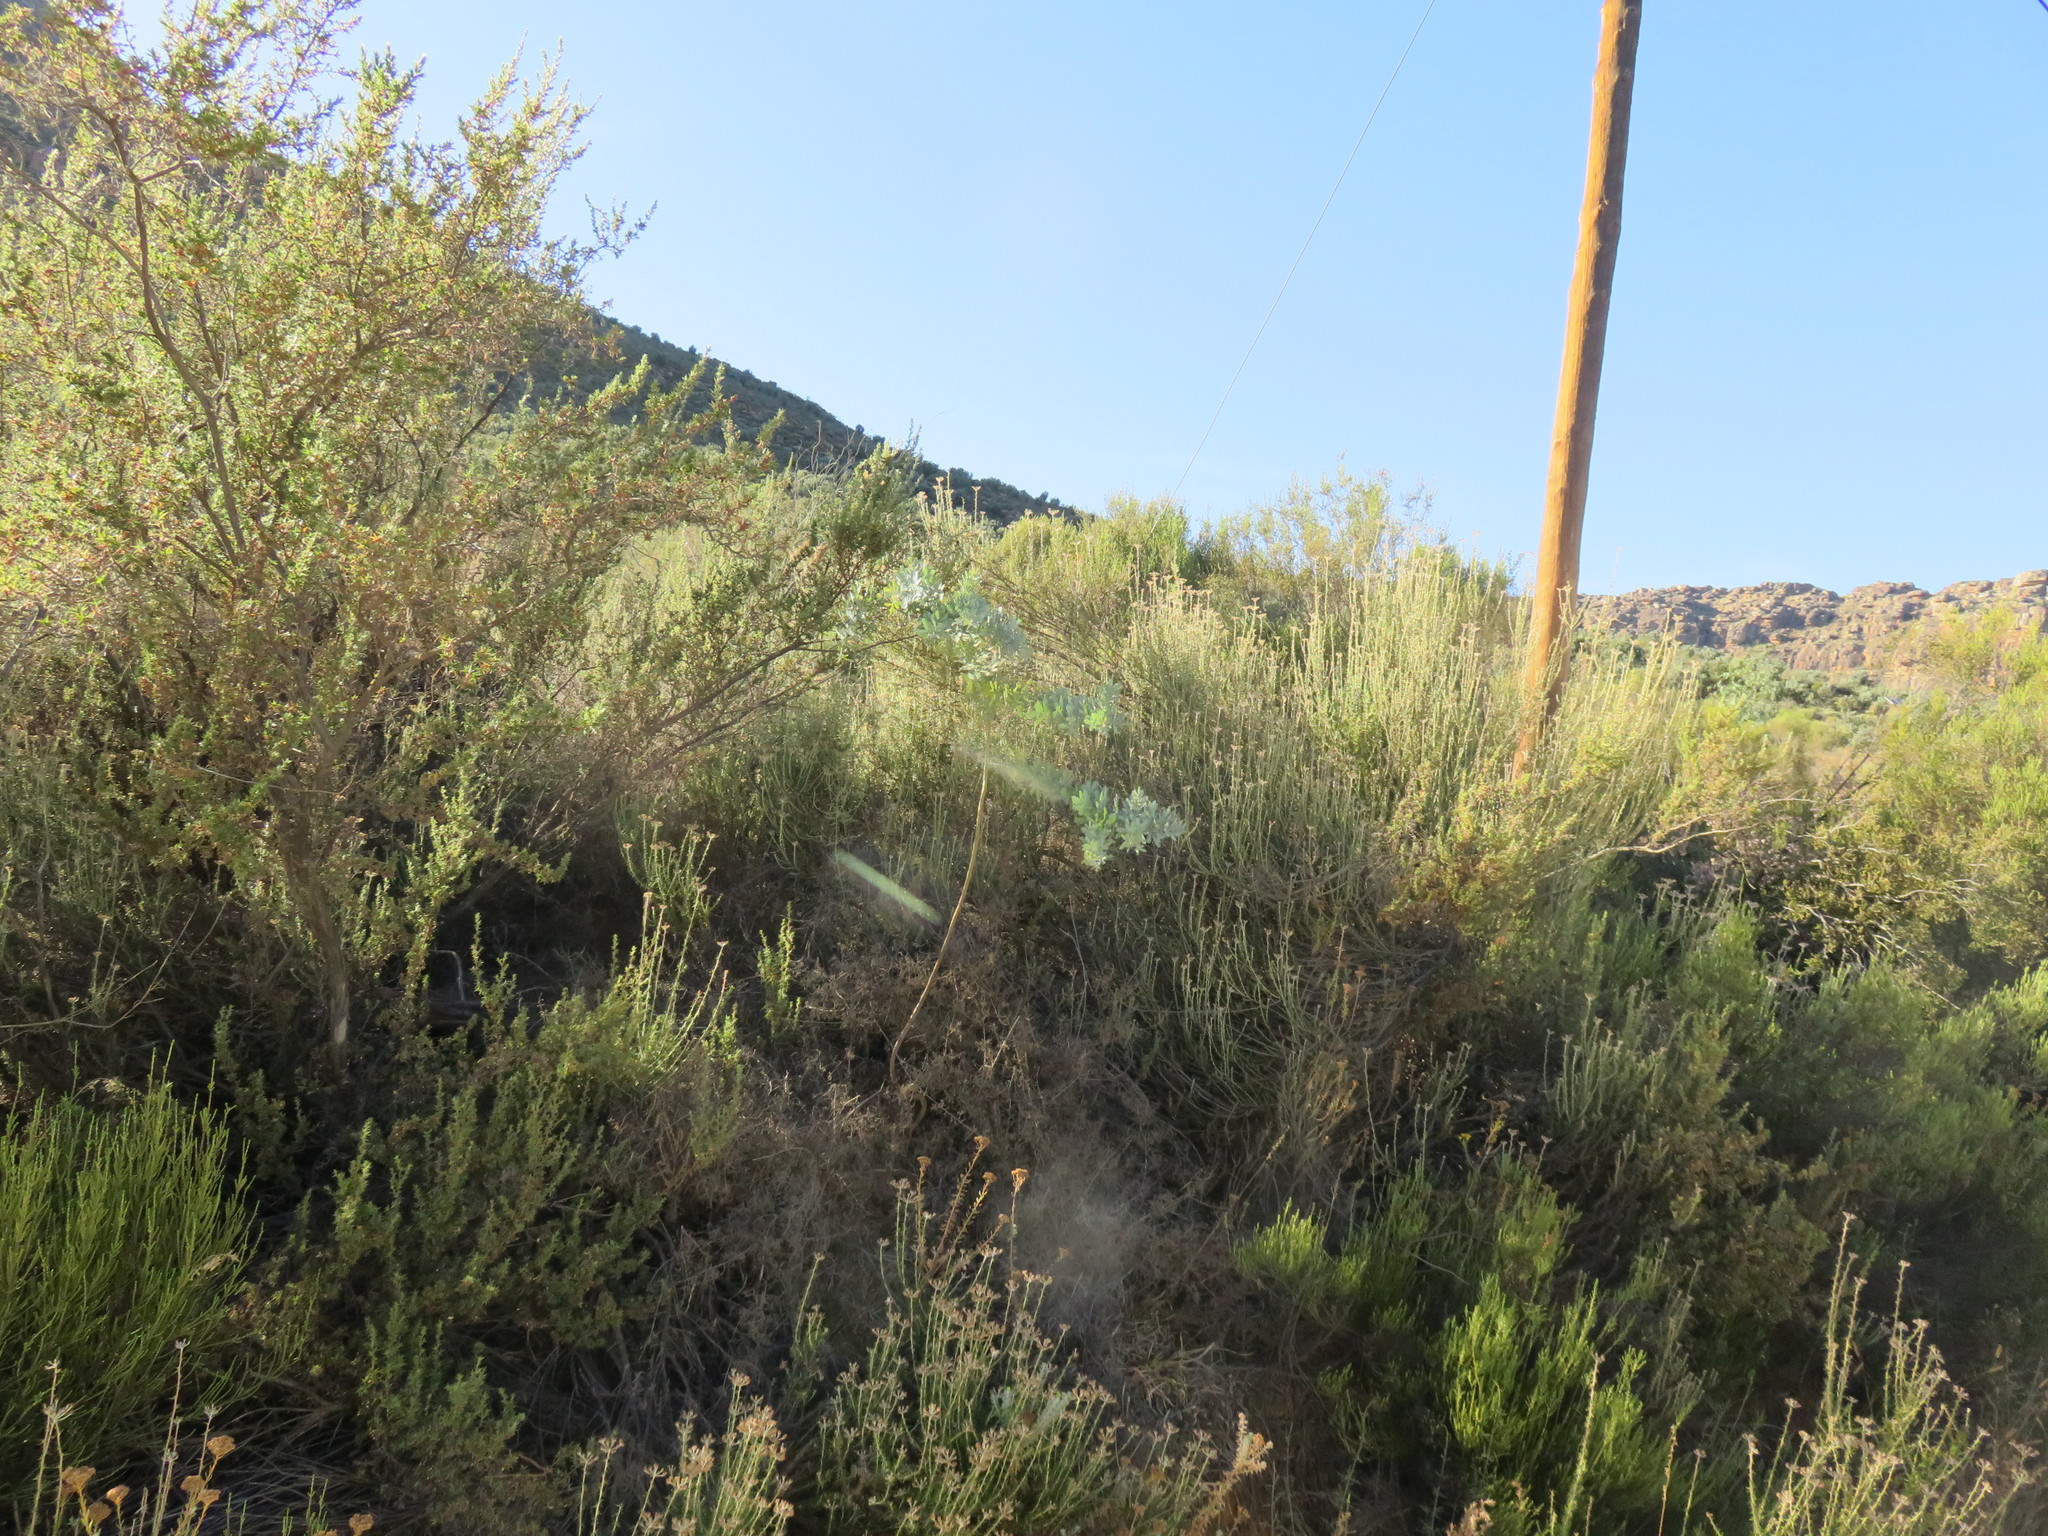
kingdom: Plantae
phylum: Tracheophyta
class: Magnoliopsida
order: Fabales
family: Fabaceae
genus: Acacia
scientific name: Acacia baileyana
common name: Cootamundra wattle
